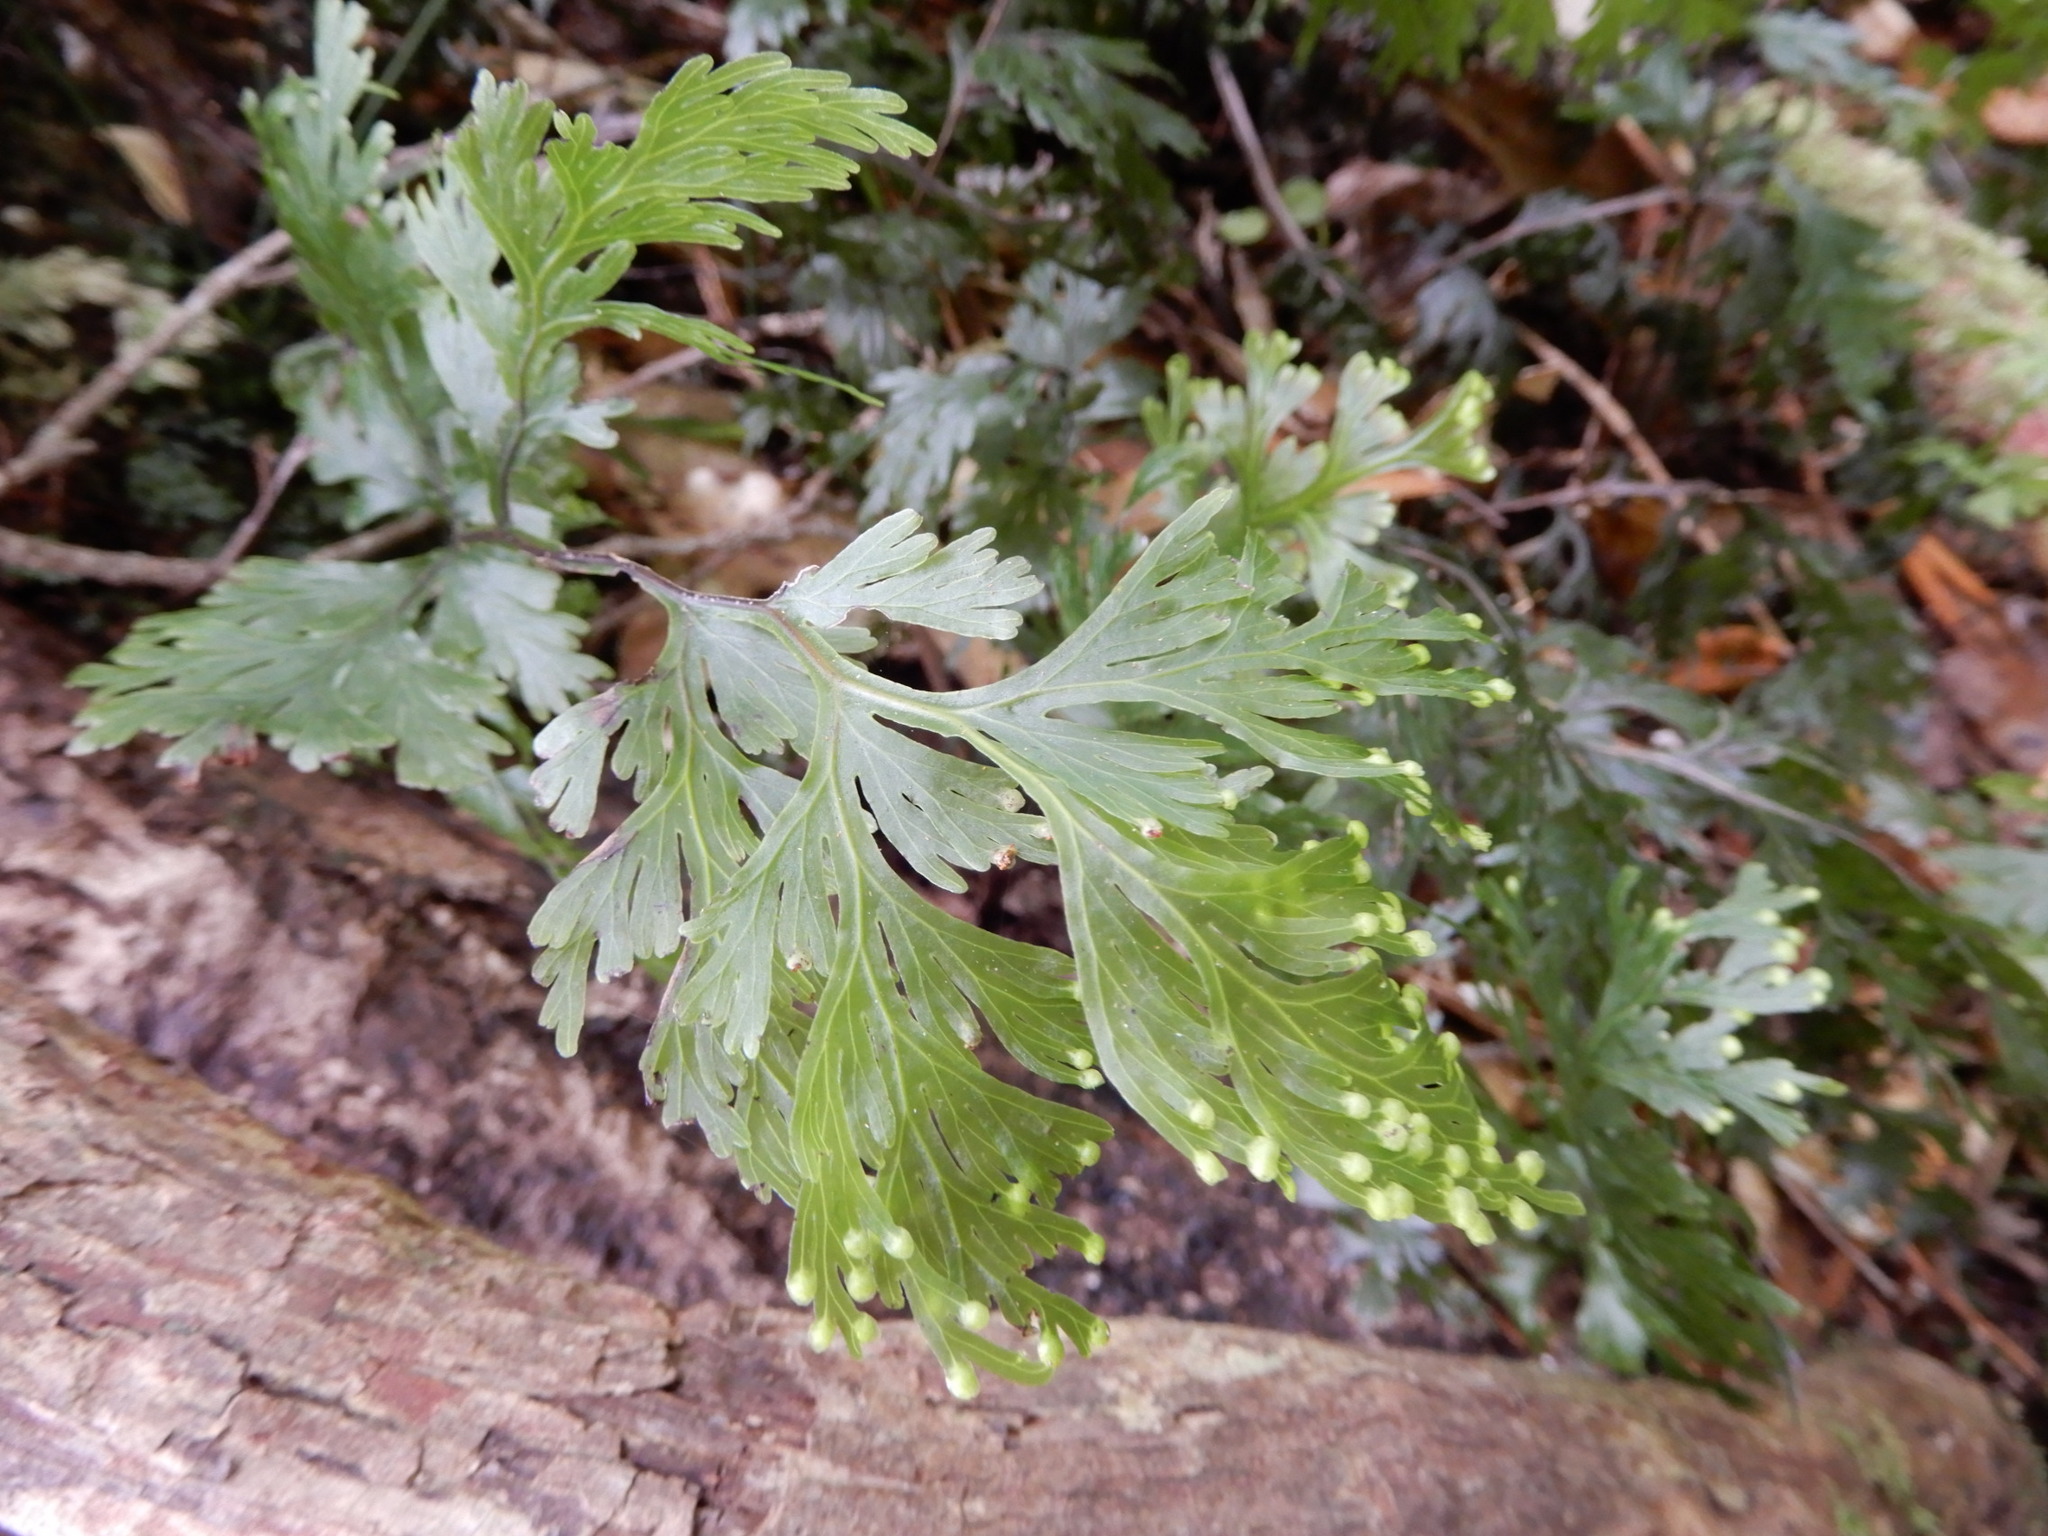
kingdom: Plantae
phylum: Tracheophyta
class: Polypodiopsida
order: Hymenophyllales
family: Hymenophyllaceae
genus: Hymenophyllum
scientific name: Hymenophyllum dilatatum
